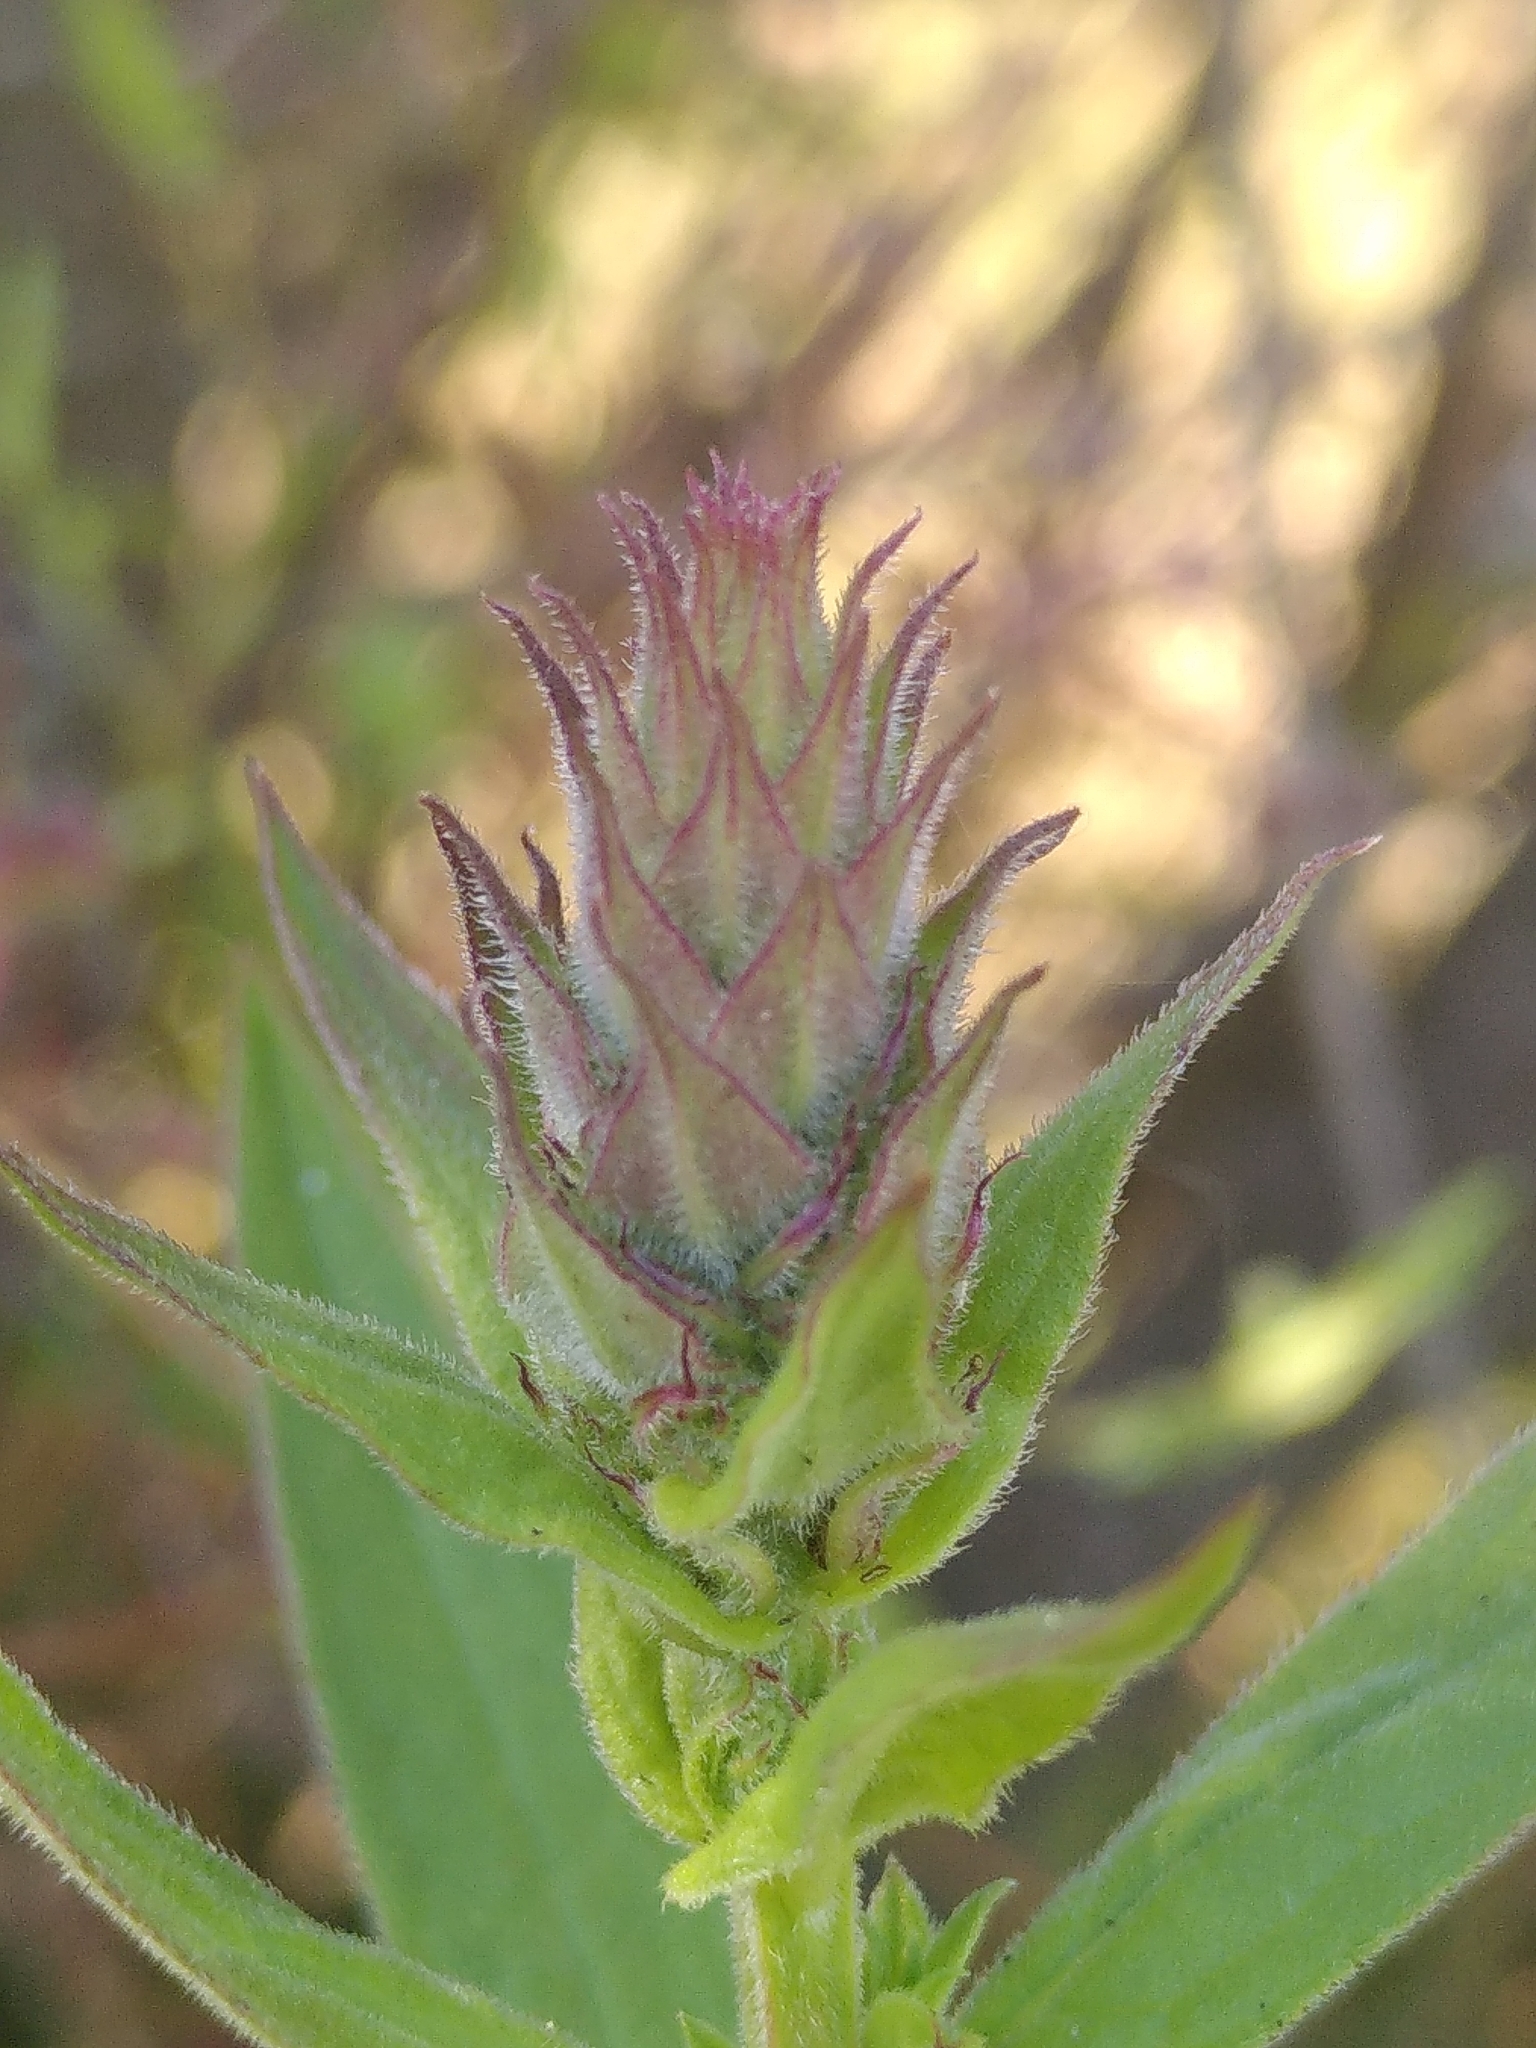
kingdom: Plantae
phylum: Tracheophyta
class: Magnoliopsida
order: Myrtales
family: Lythraceae
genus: Lythrum
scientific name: Lythrum salicaria
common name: Purple loosestrife
